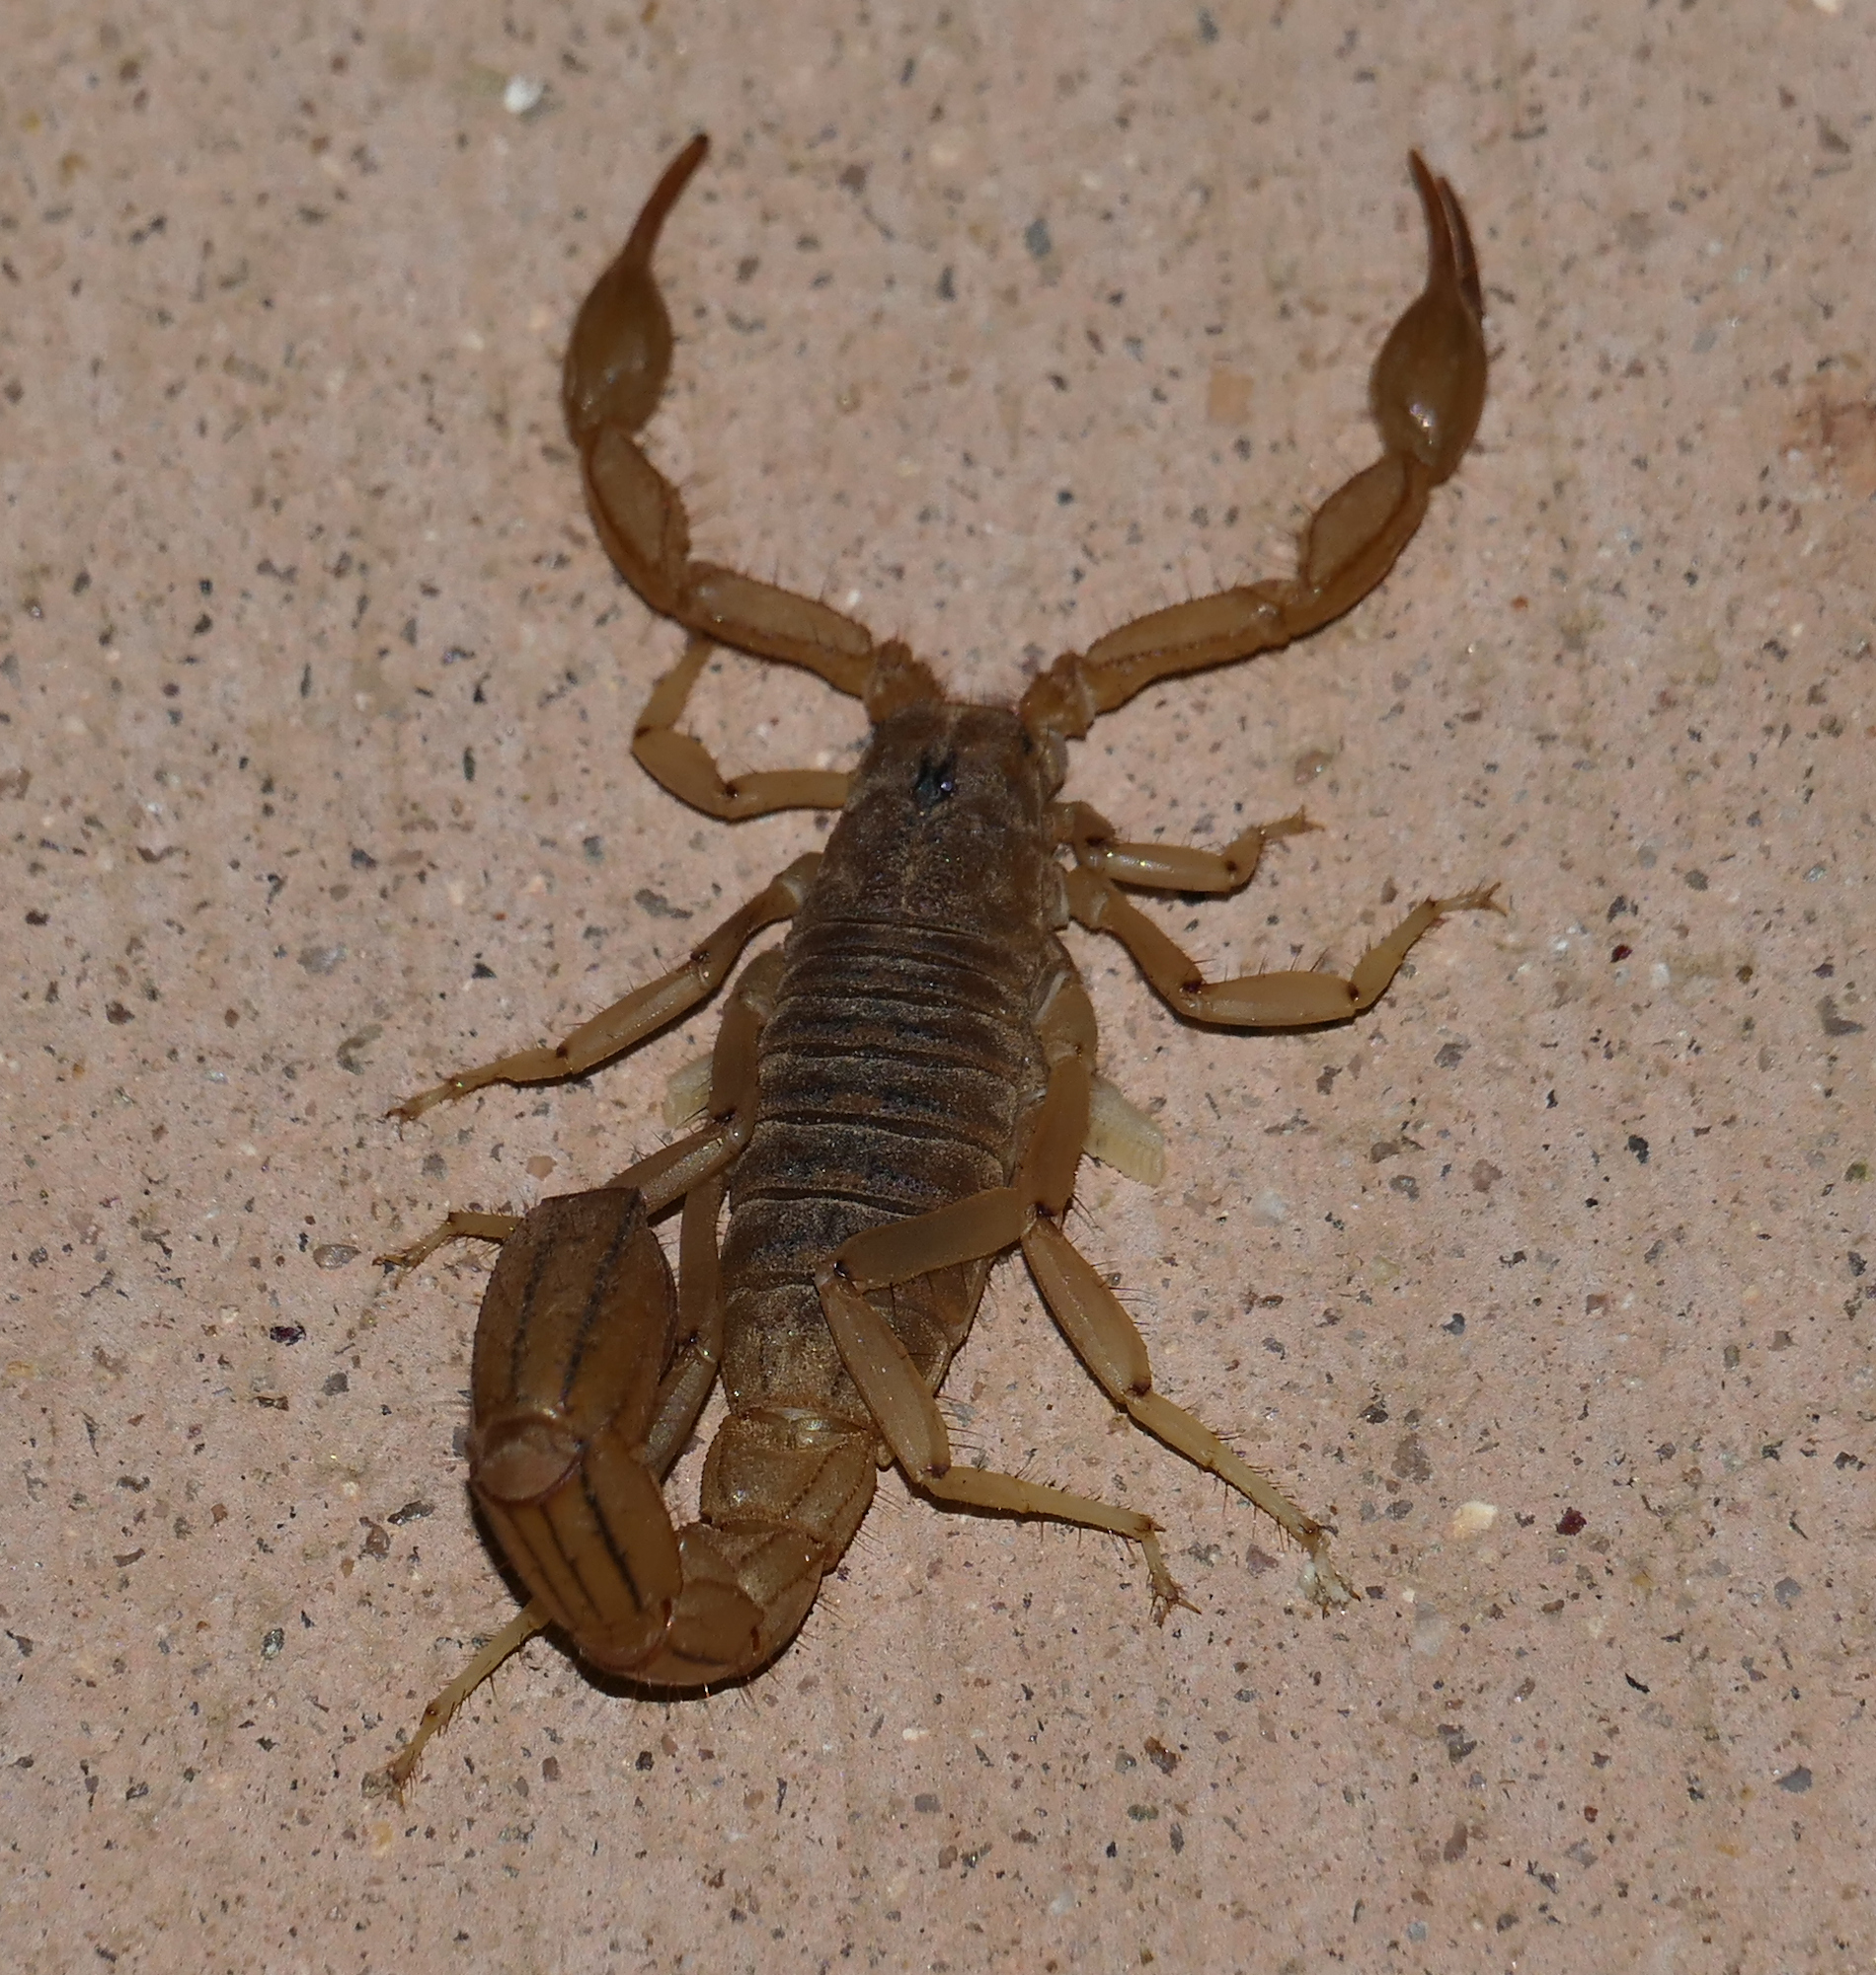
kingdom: Animalia
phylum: Arthropoda
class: Arachnida
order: Scorpiones
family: Vaejovidae
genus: Paravaejovis
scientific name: Paravaejovis spinigerus
